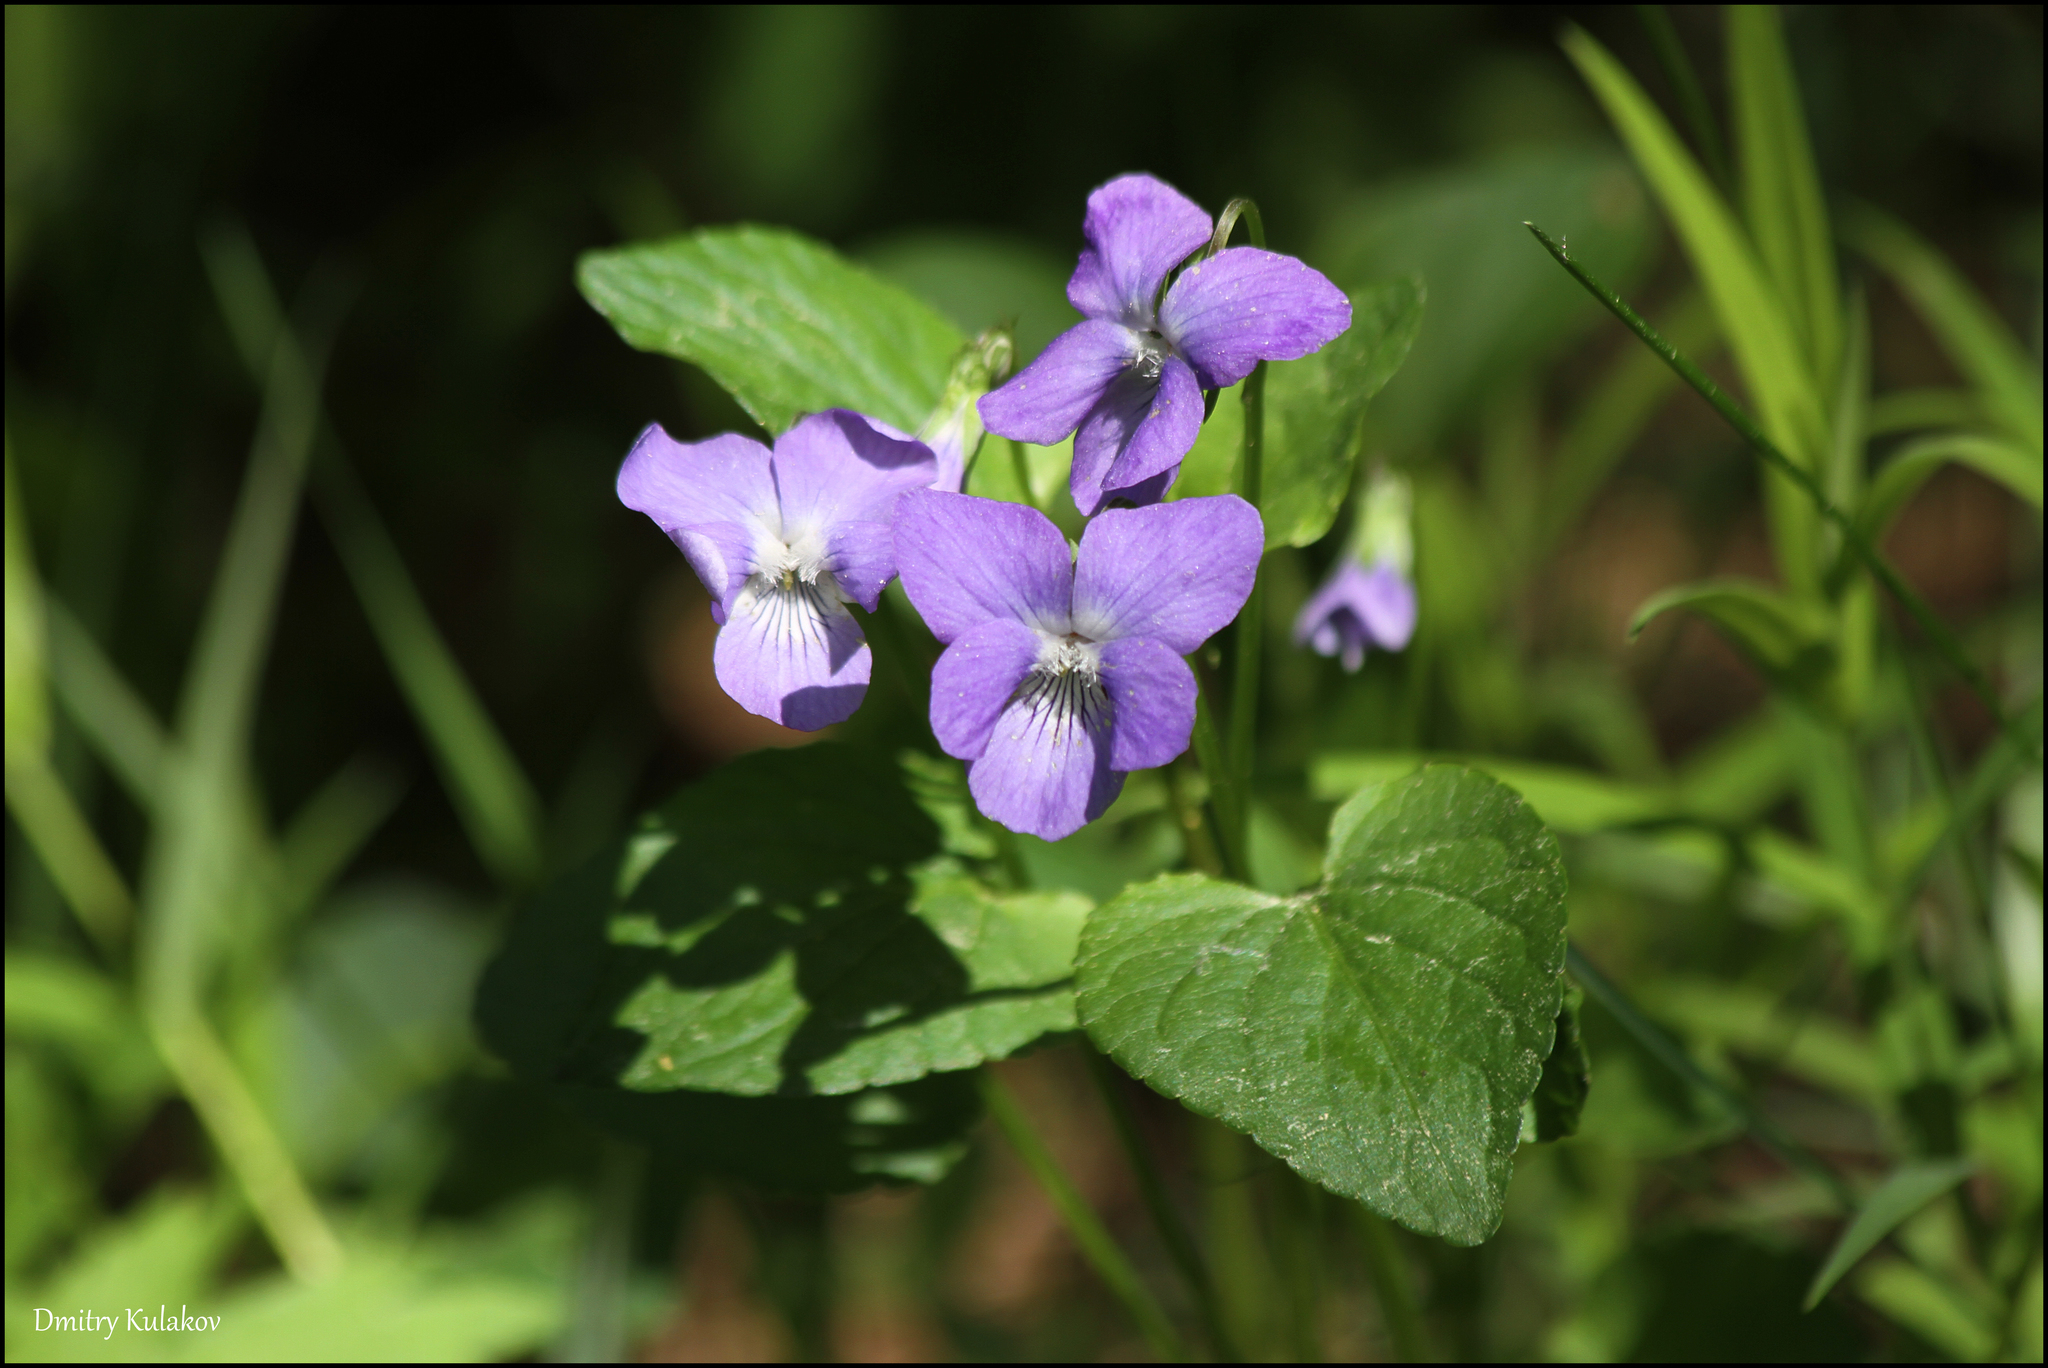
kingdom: Plantae
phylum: Tracheophyta
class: Magnoliopsida
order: Malpighiales
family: Violaceae
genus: Viola
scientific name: Viola canina
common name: Heath dog-violet
